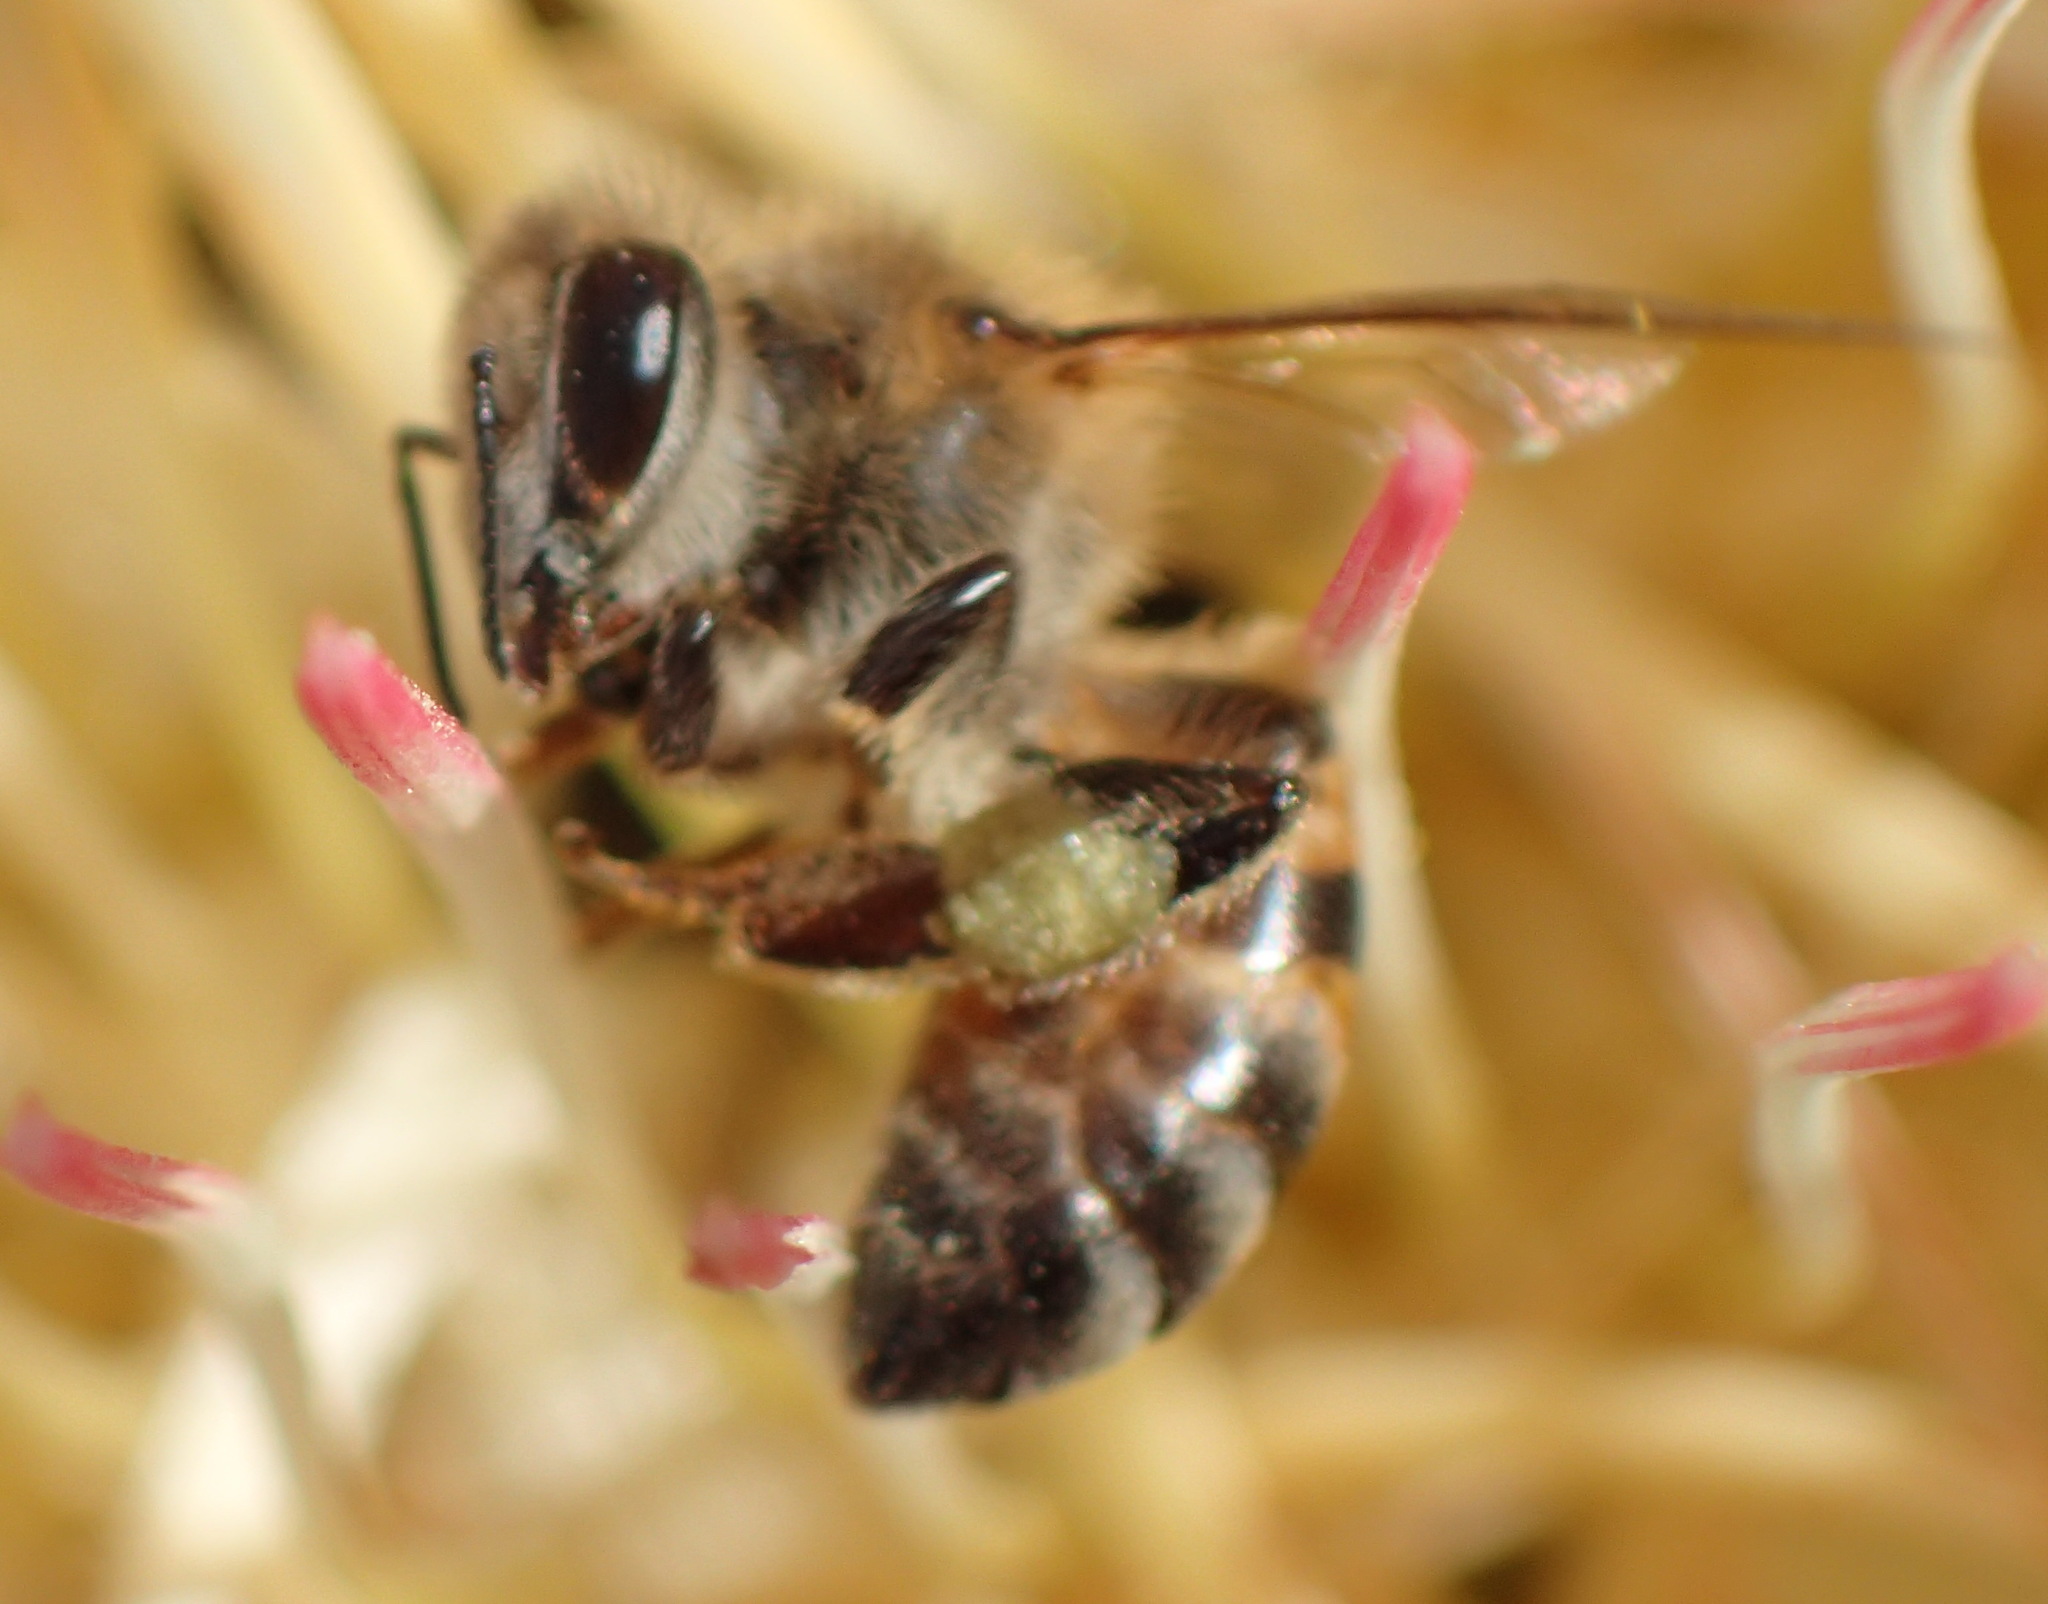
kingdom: Animalia
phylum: Arthropoda
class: Insecta
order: Hymenoptera
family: Apidae
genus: Apis
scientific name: Apis mellifera
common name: Honey bee
